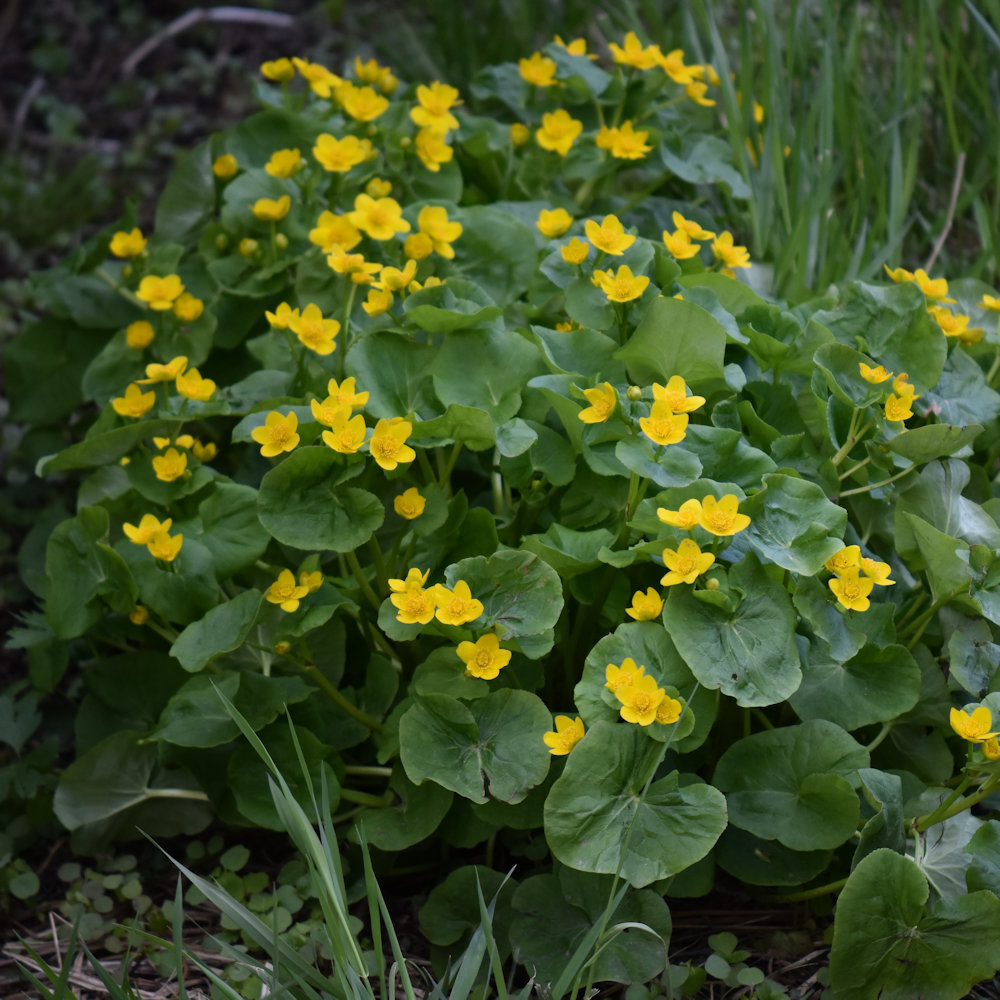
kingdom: Plantae
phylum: Tracheophyta
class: Magnoliopsida
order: Ranunculales
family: Ranunculaceae
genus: Caltha
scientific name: Caltha palustris
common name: Marsh marigold
